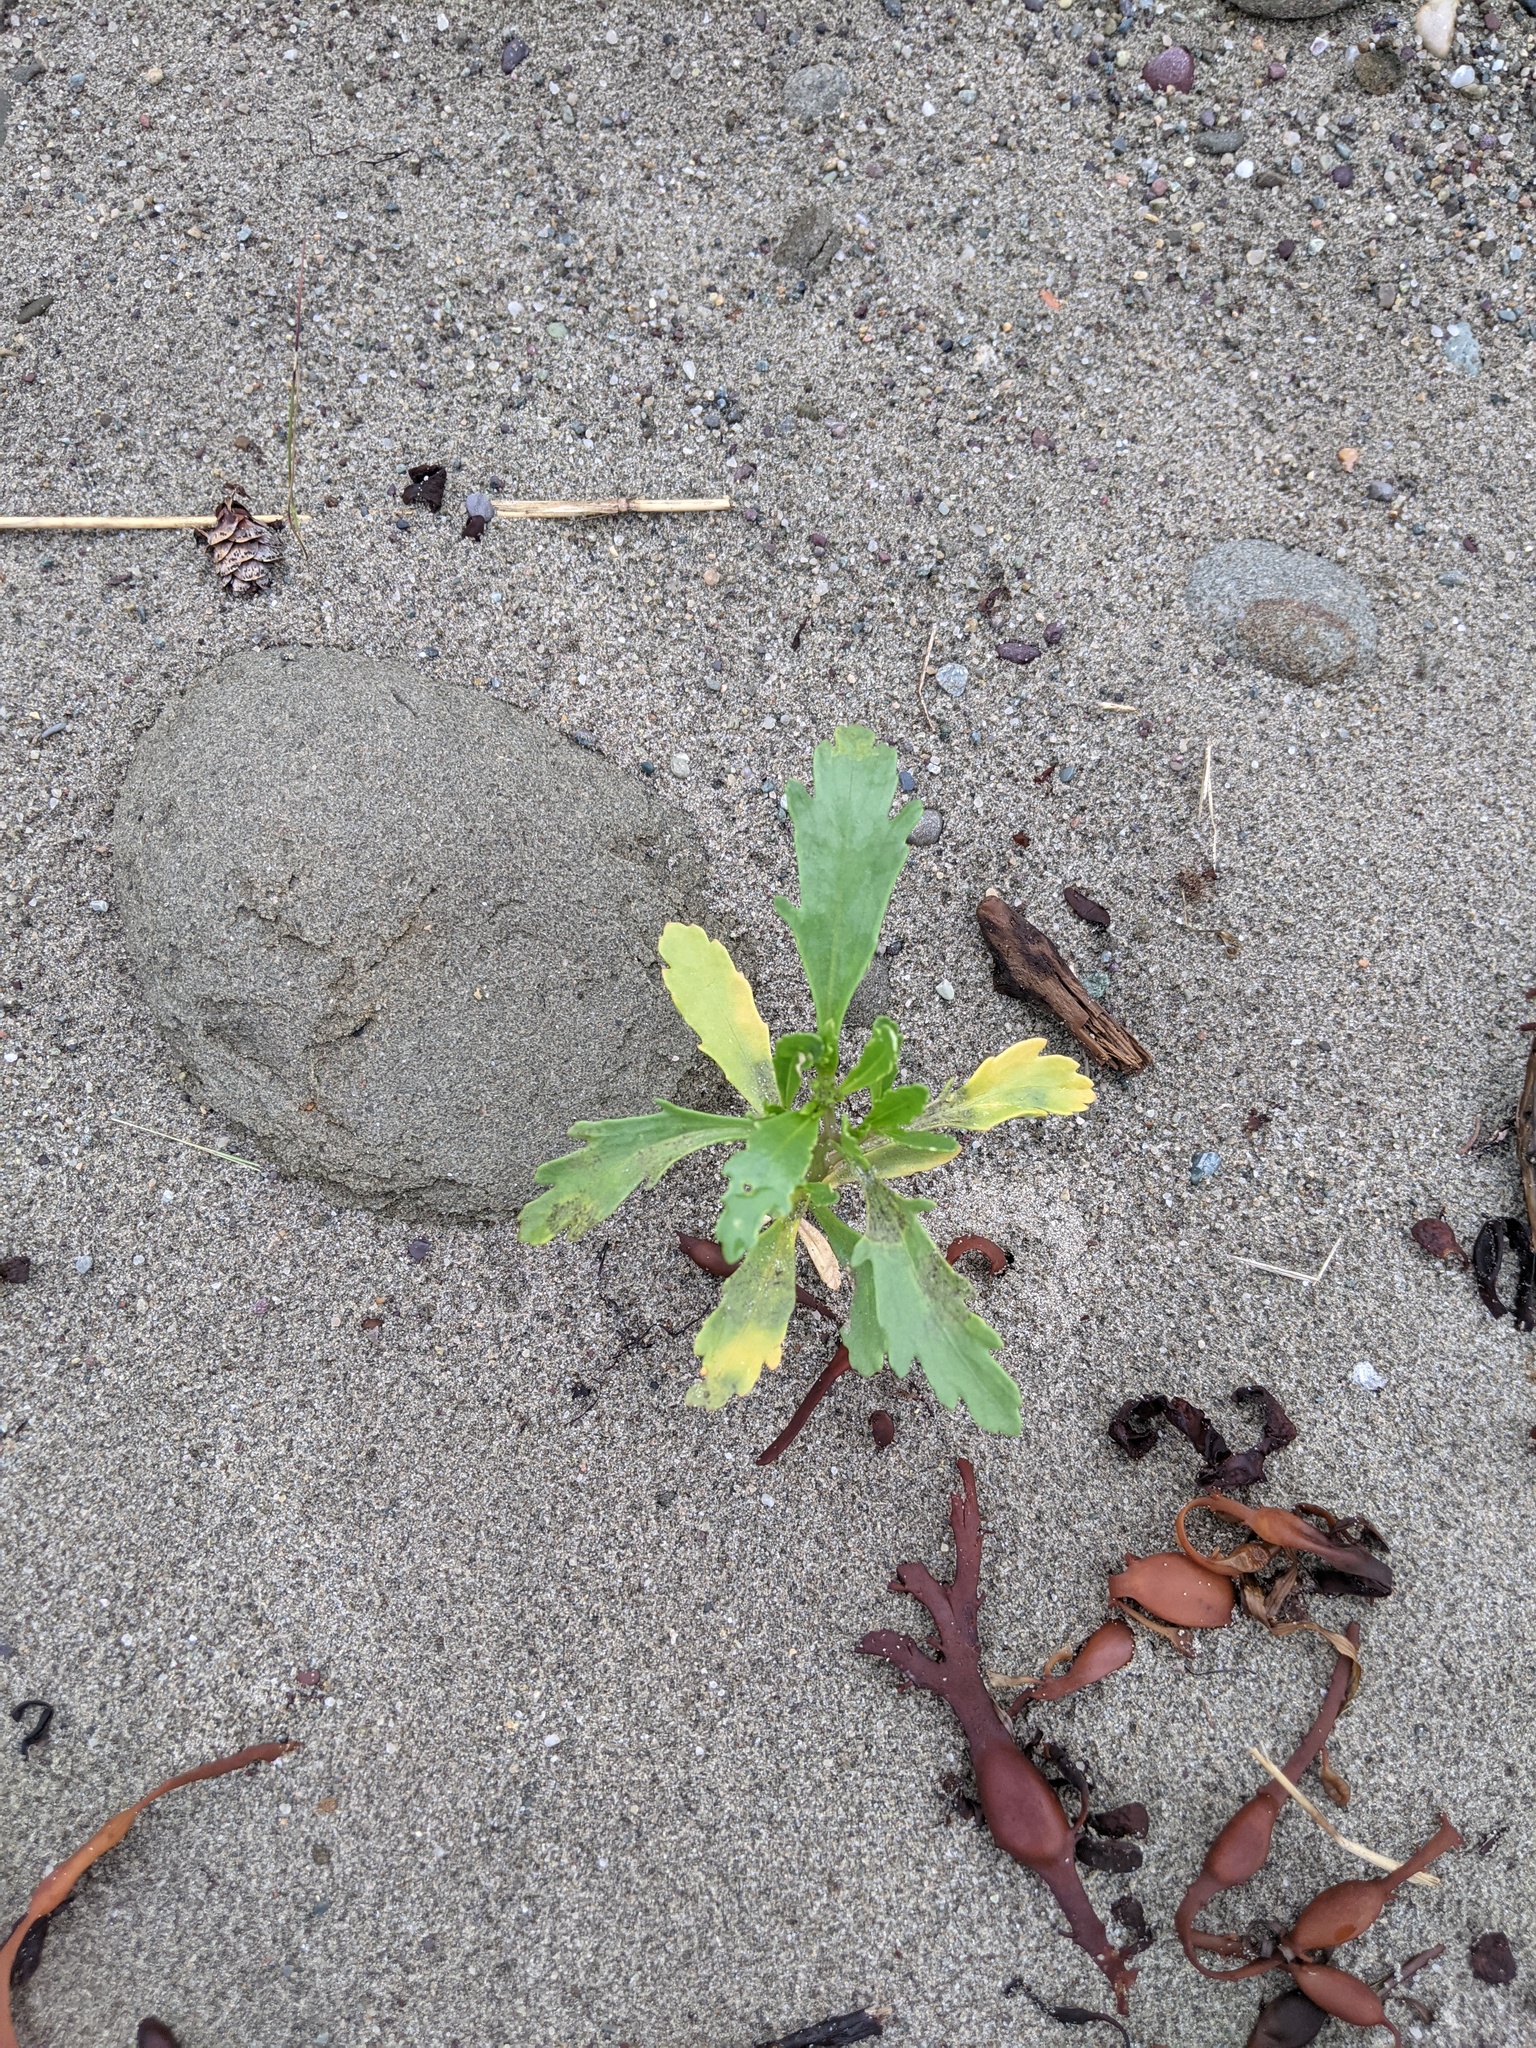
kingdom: Plantae
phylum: Tracheophyta
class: Magnoliopsida
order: Brassicales
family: Brassicaceae
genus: Cakile
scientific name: Cakile edentula
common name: American sea rocket
